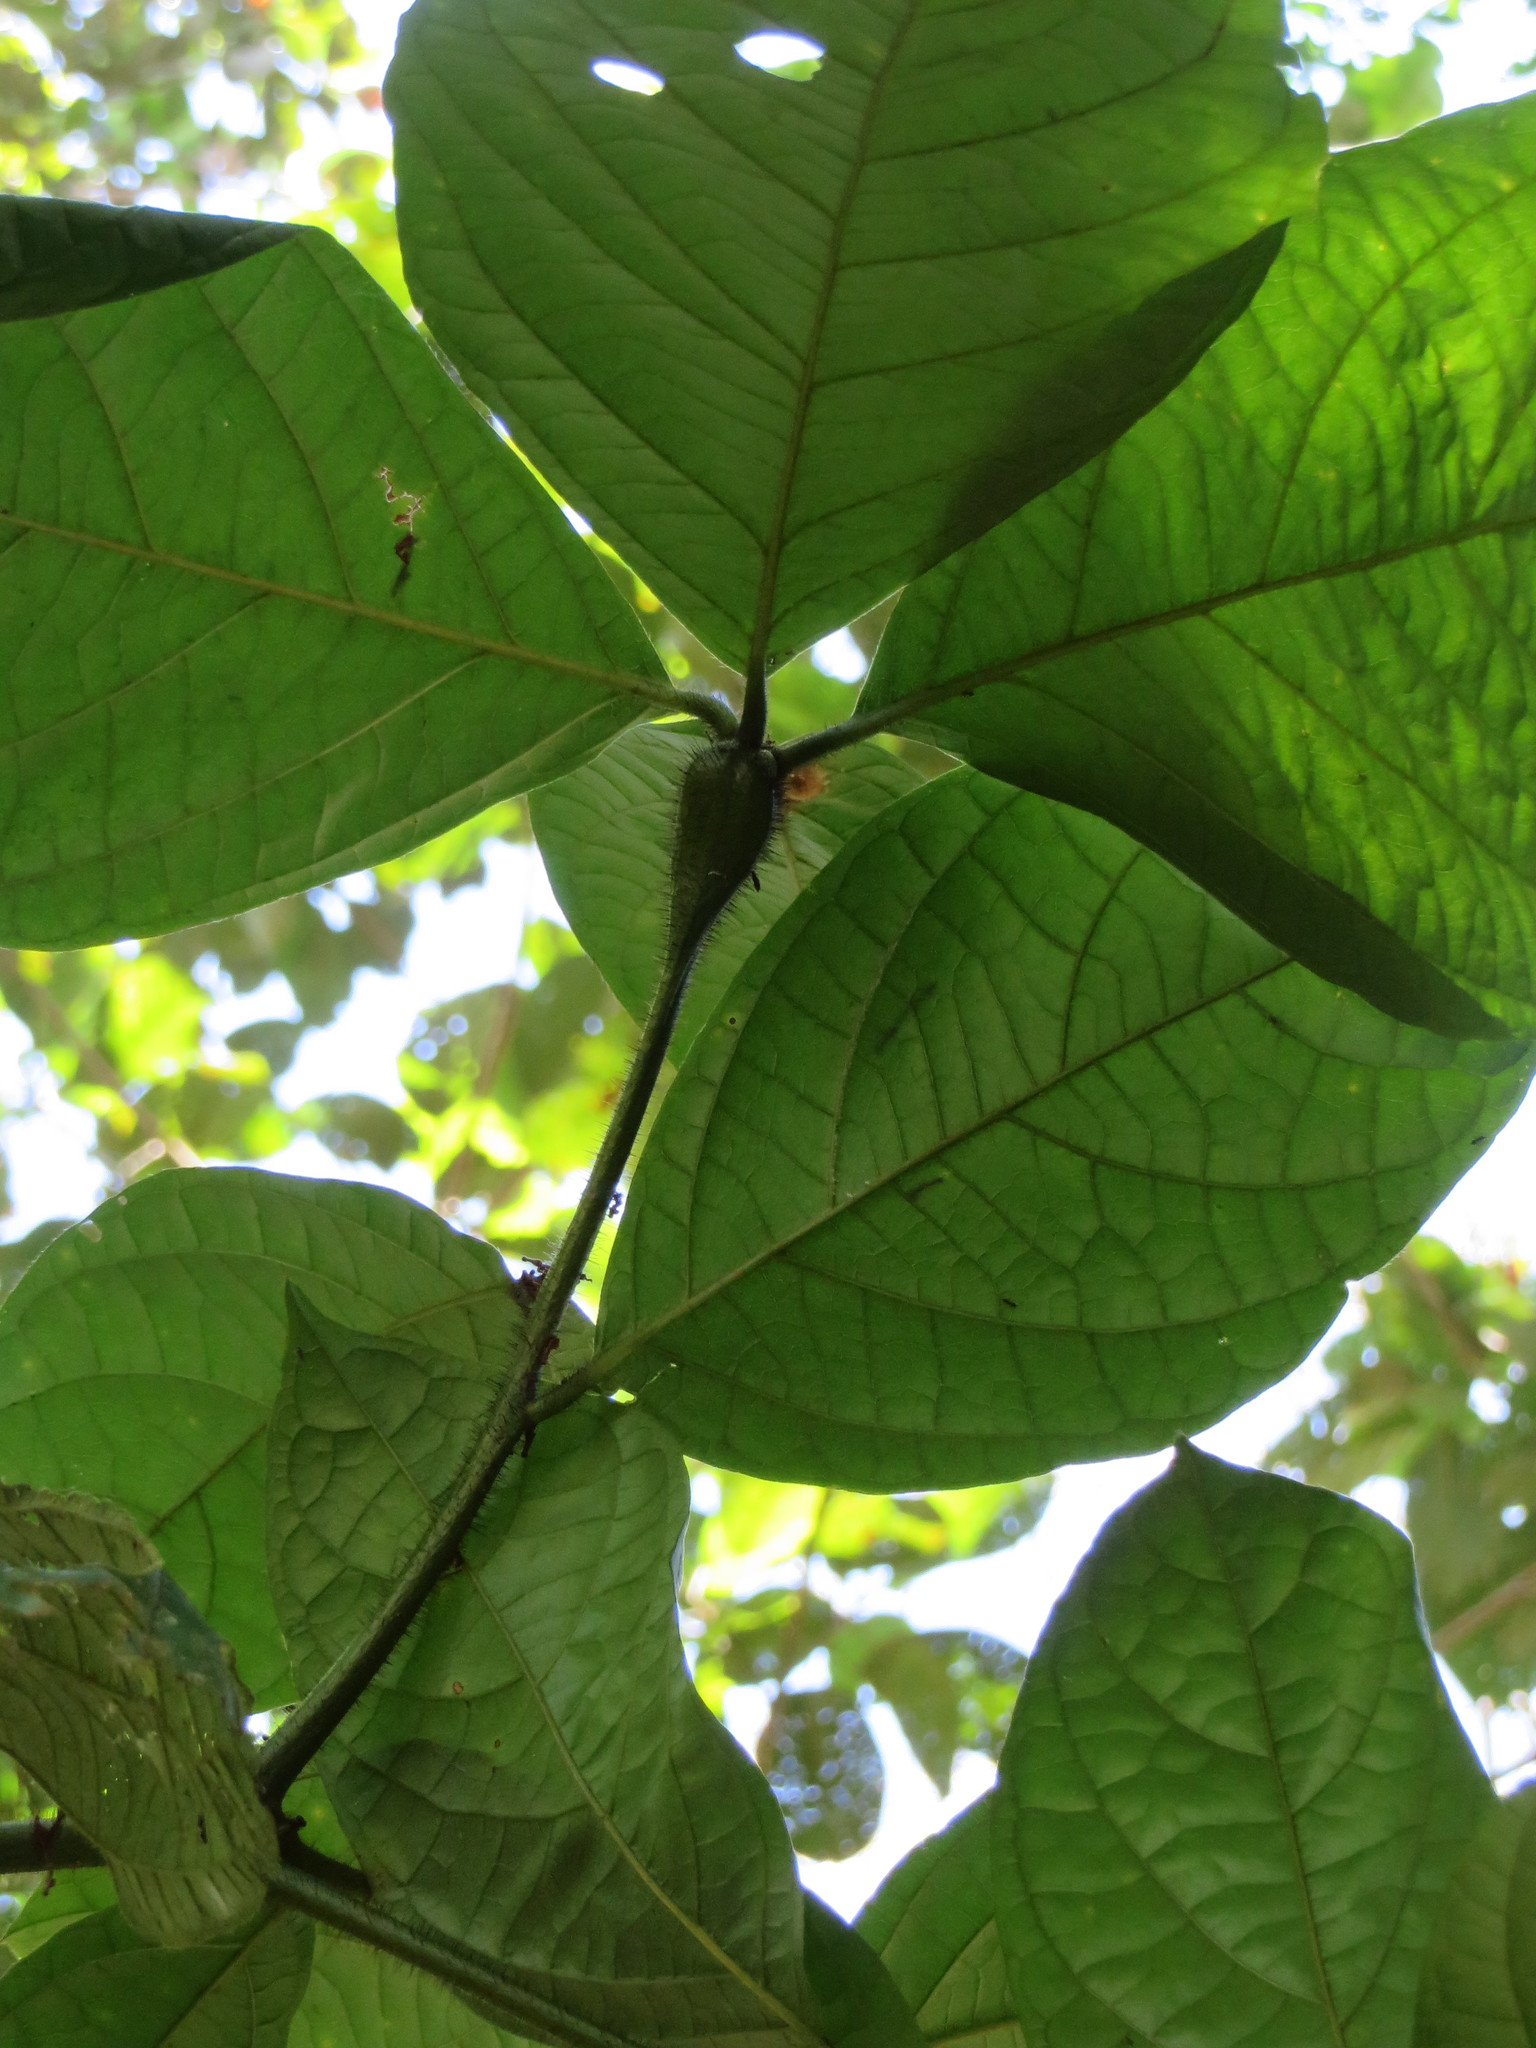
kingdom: Plantae
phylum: Tracheophyta
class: Magnoliopsida
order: Boraginales
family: Cordiaceae
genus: Cordia
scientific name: Cordia nodosa
